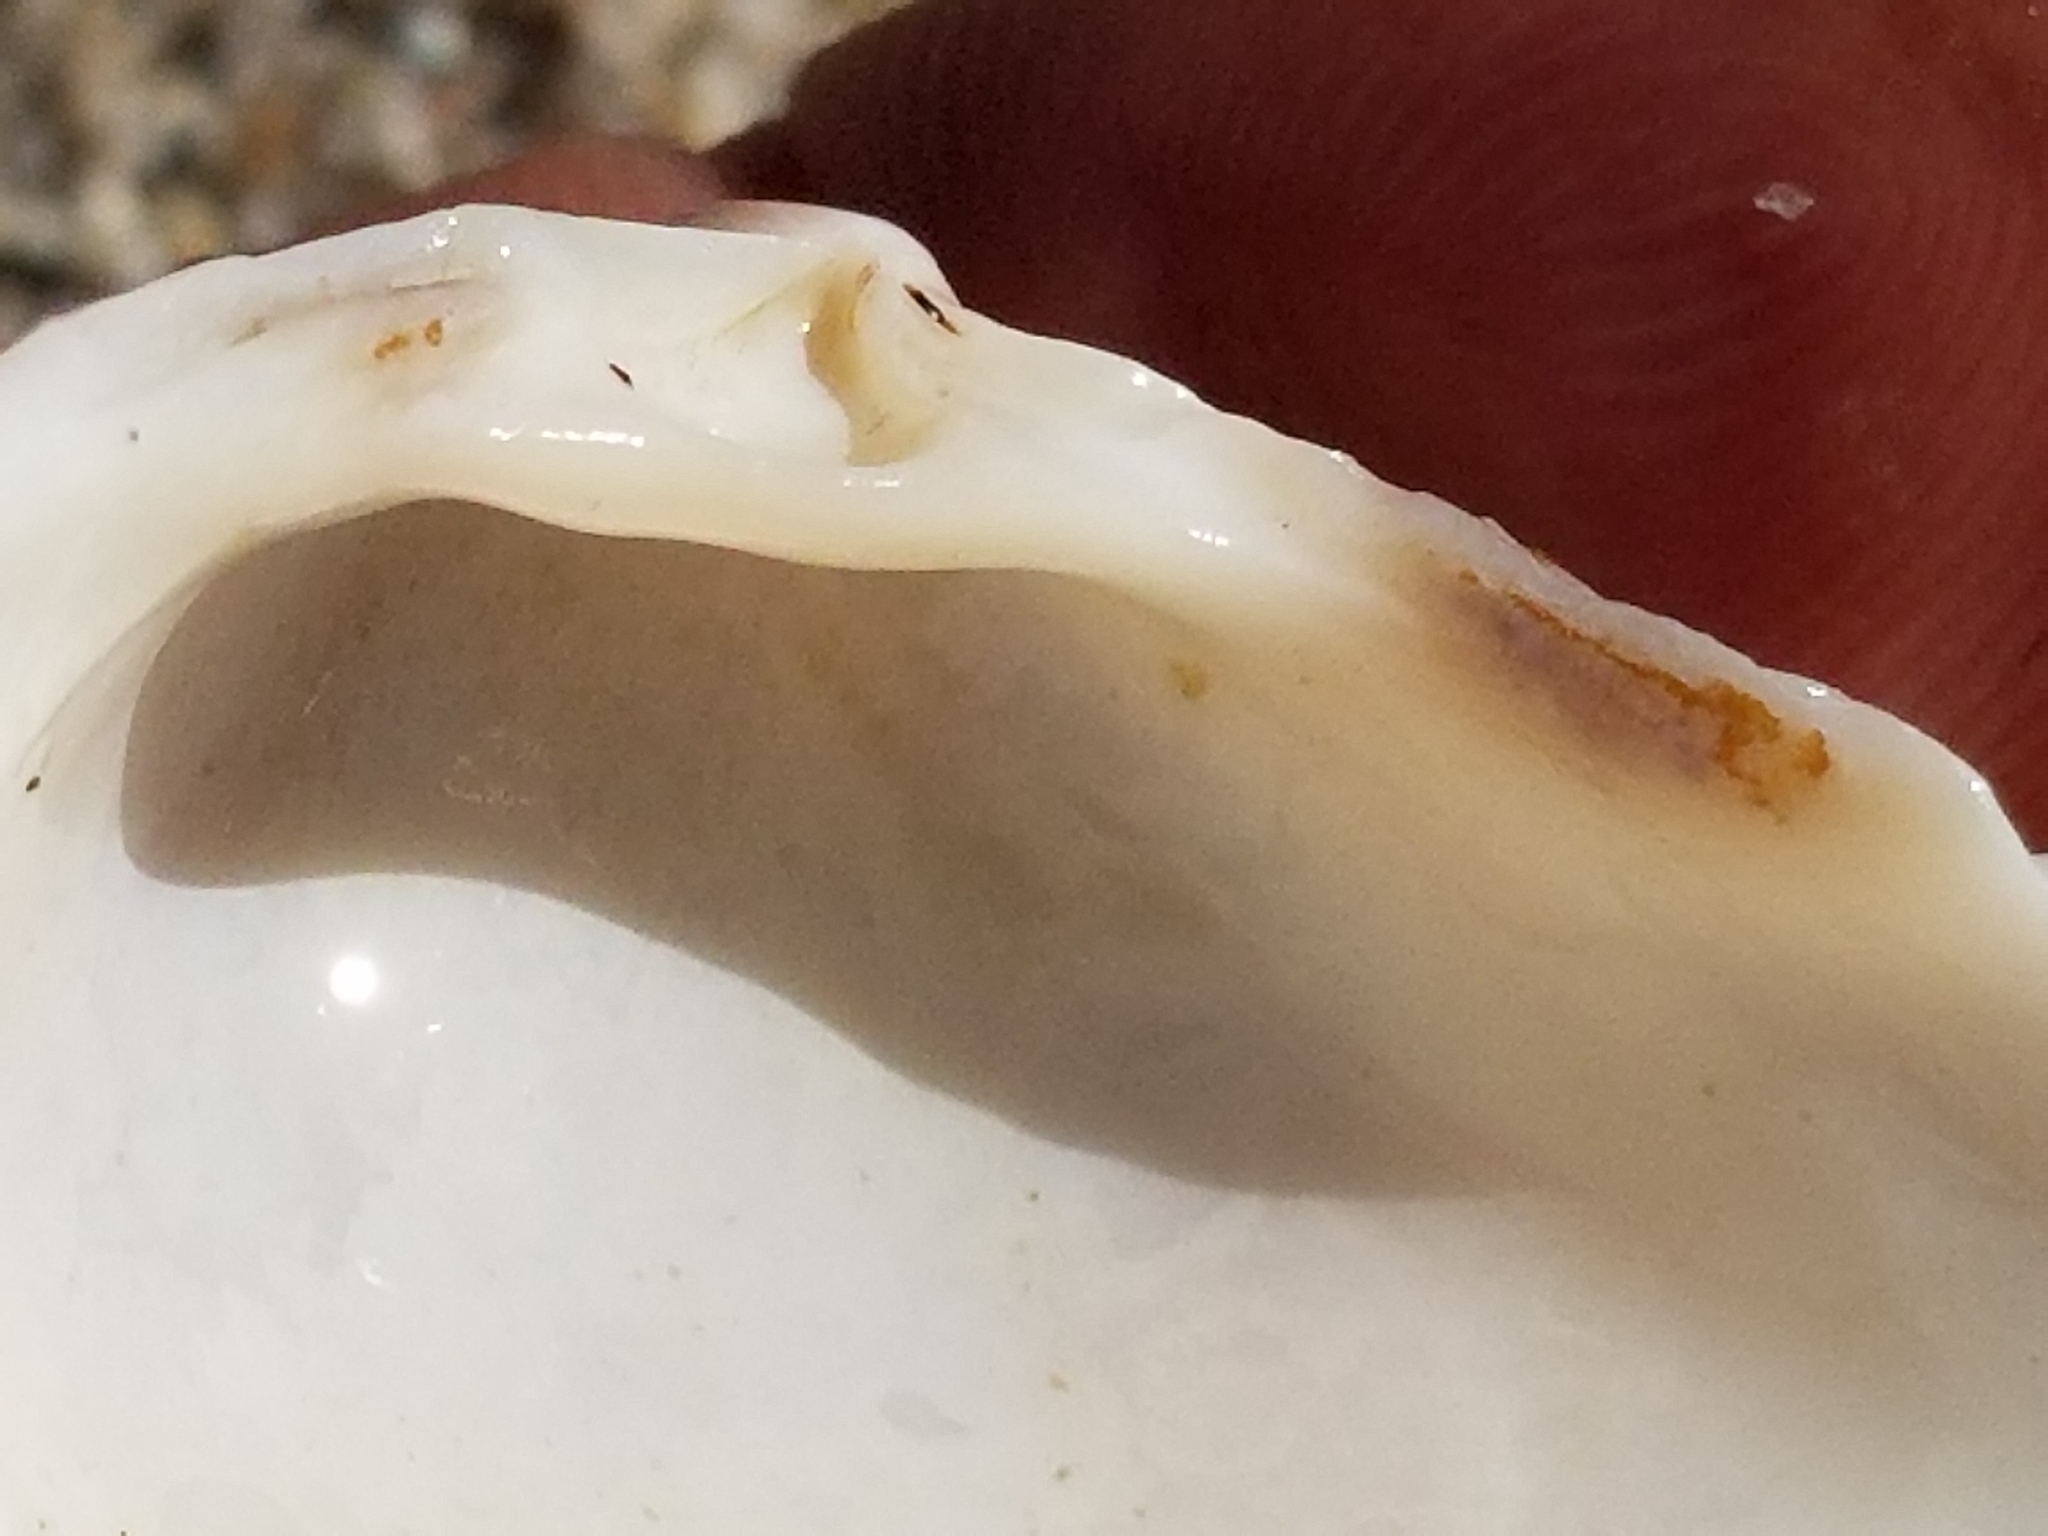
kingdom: Animalia
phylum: Mollusca
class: Bivalvia
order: Venerida
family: Mactridae
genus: Crassula
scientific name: Crassula aequilatera
